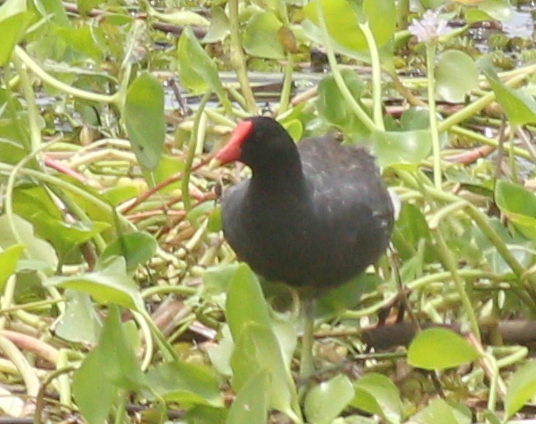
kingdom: Animalia
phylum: Chordata
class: Aves
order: Gruiformes
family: Rallidae
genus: Gallinula
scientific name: Gallinula chloropus
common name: Common moorhen
